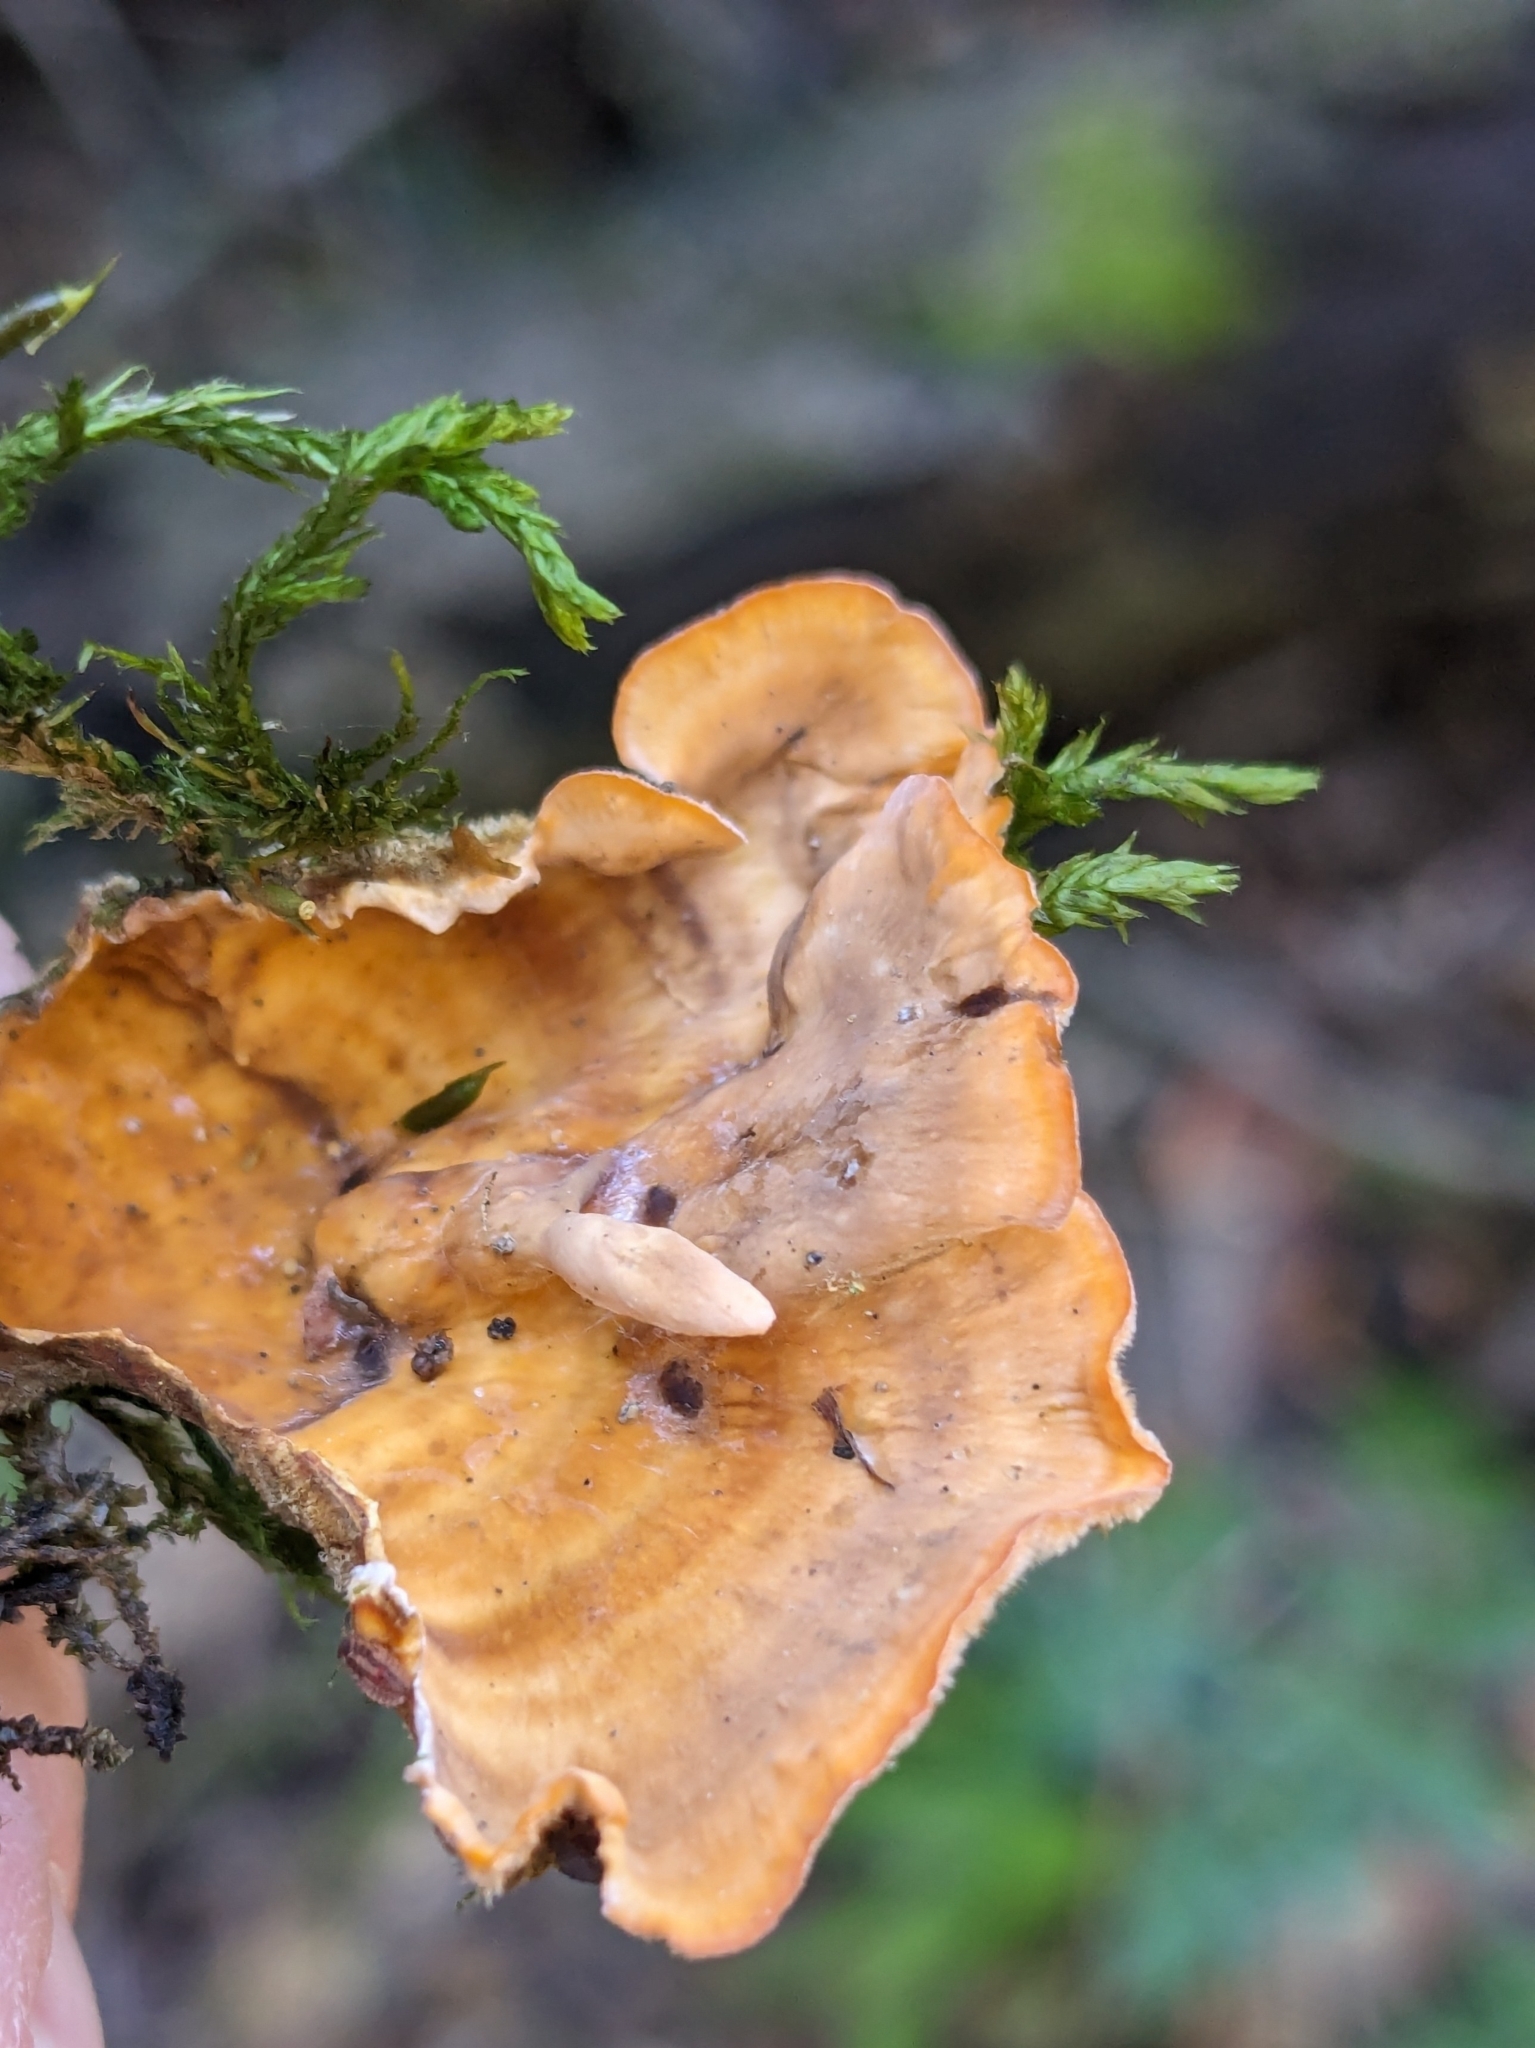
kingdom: Fungi
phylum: Basidiomycota
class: Agaricomycetes
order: Russulales
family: Stereaceae
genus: Stereum
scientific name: Stereum hirsutum
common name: Hairy curtain crust
